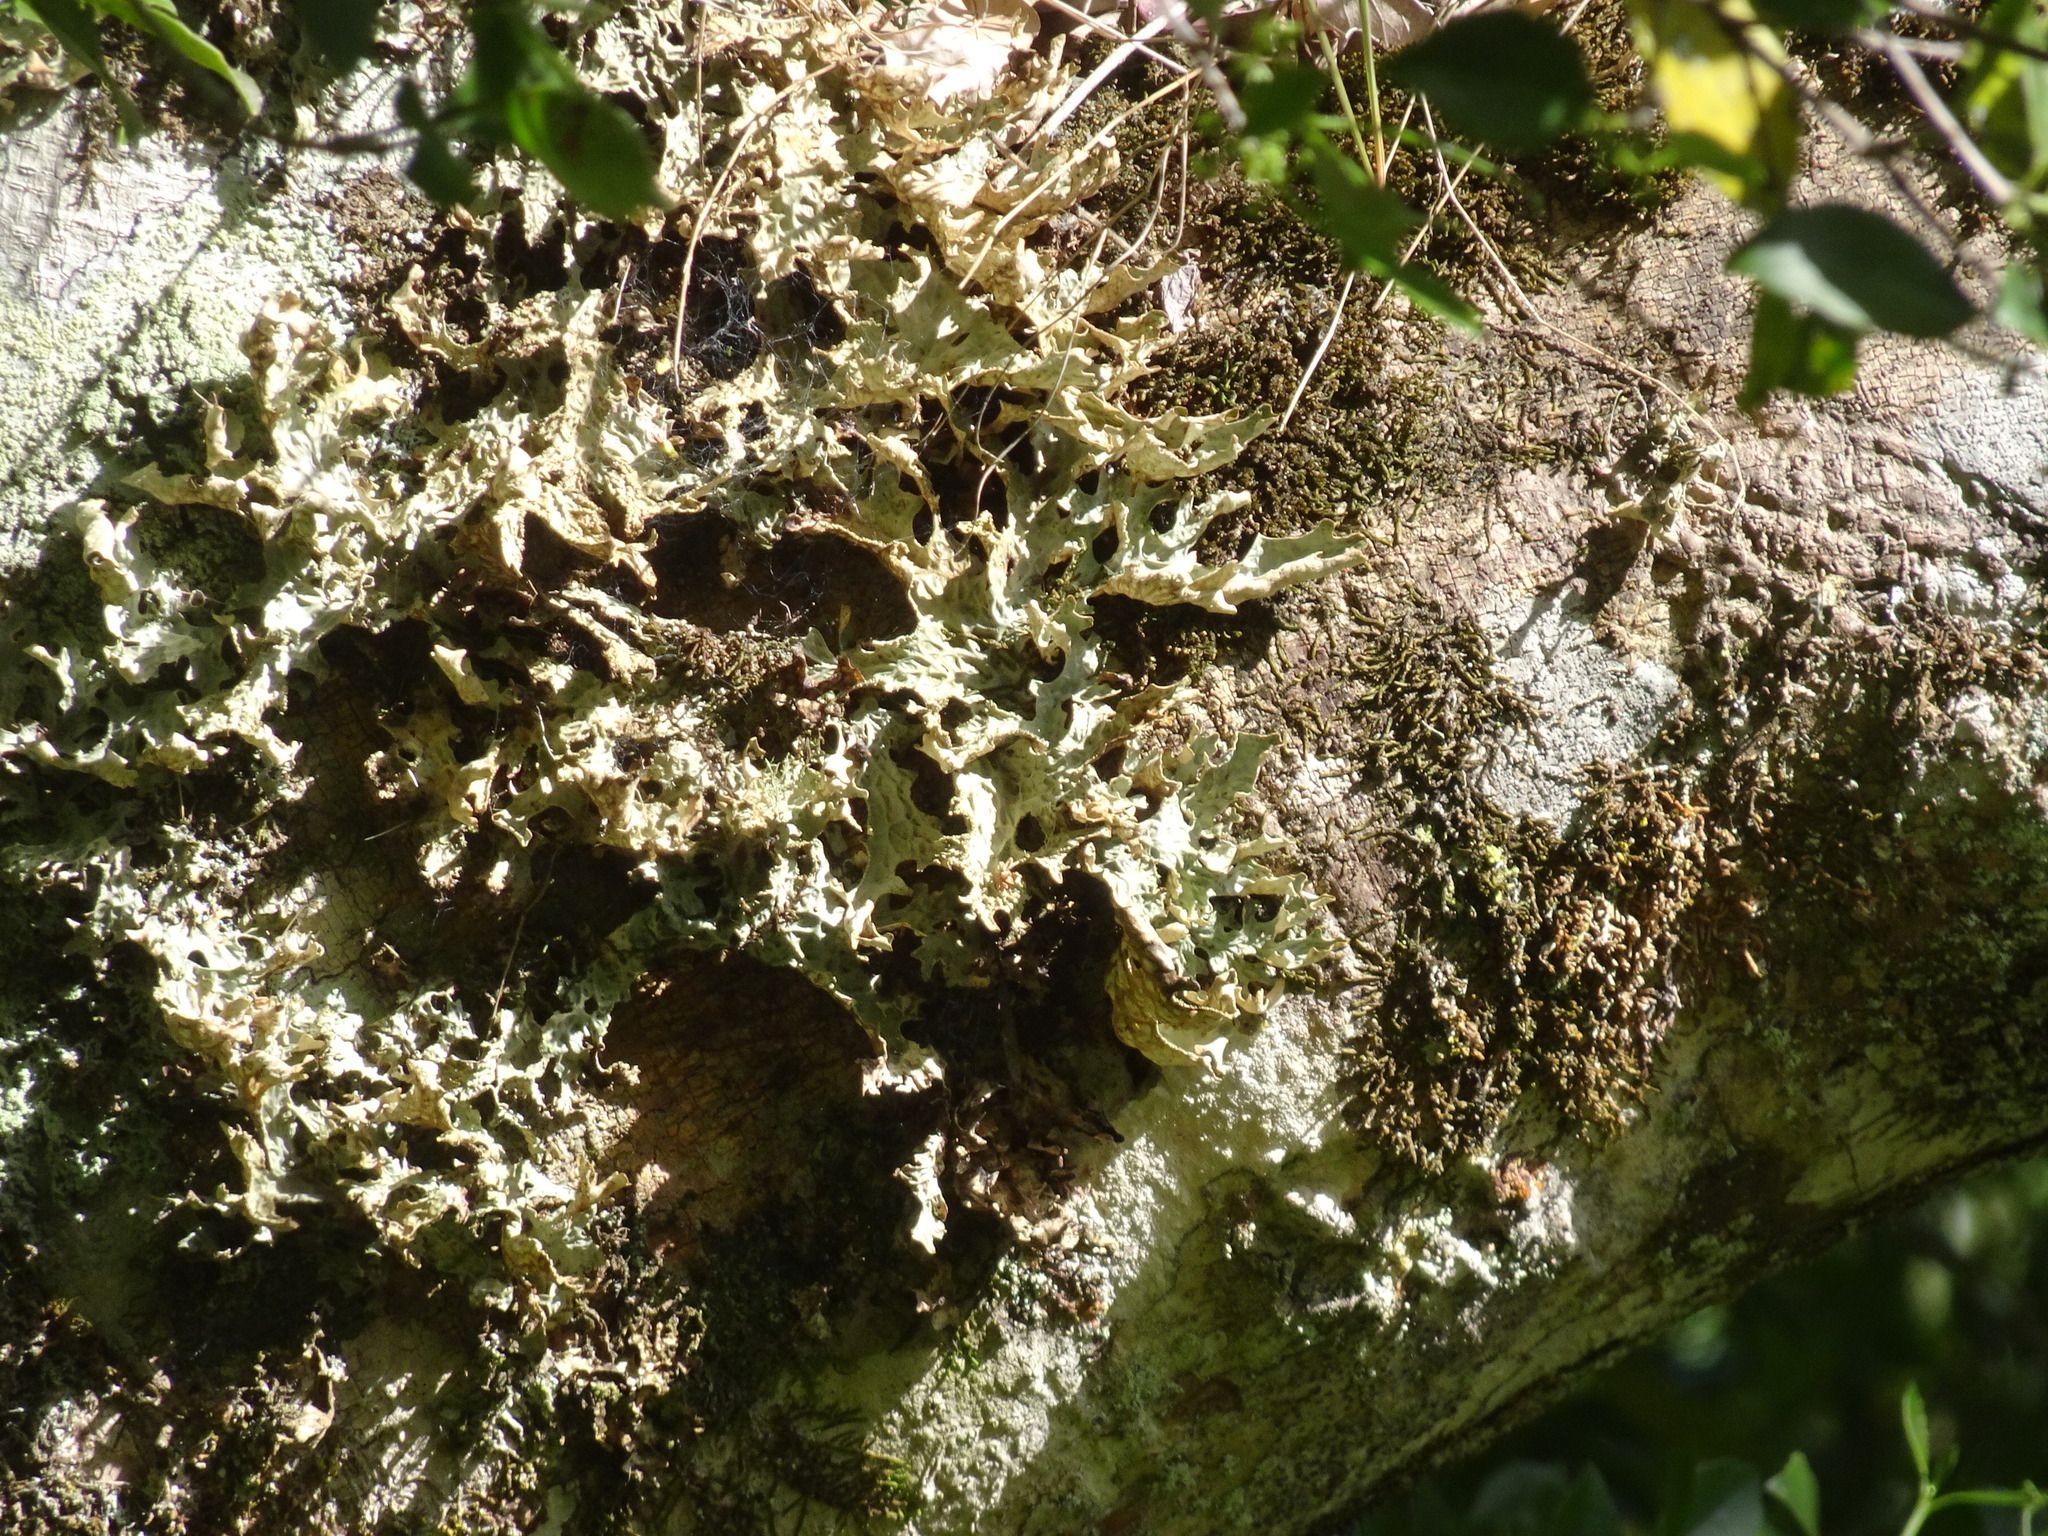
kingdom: Fungi
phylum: Ascomycota
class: Lecanoromycetes
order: Peltigerales
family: Lobariaceae
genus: Lobaria
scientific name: Lobaria pulmonaria
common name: Lungwort
